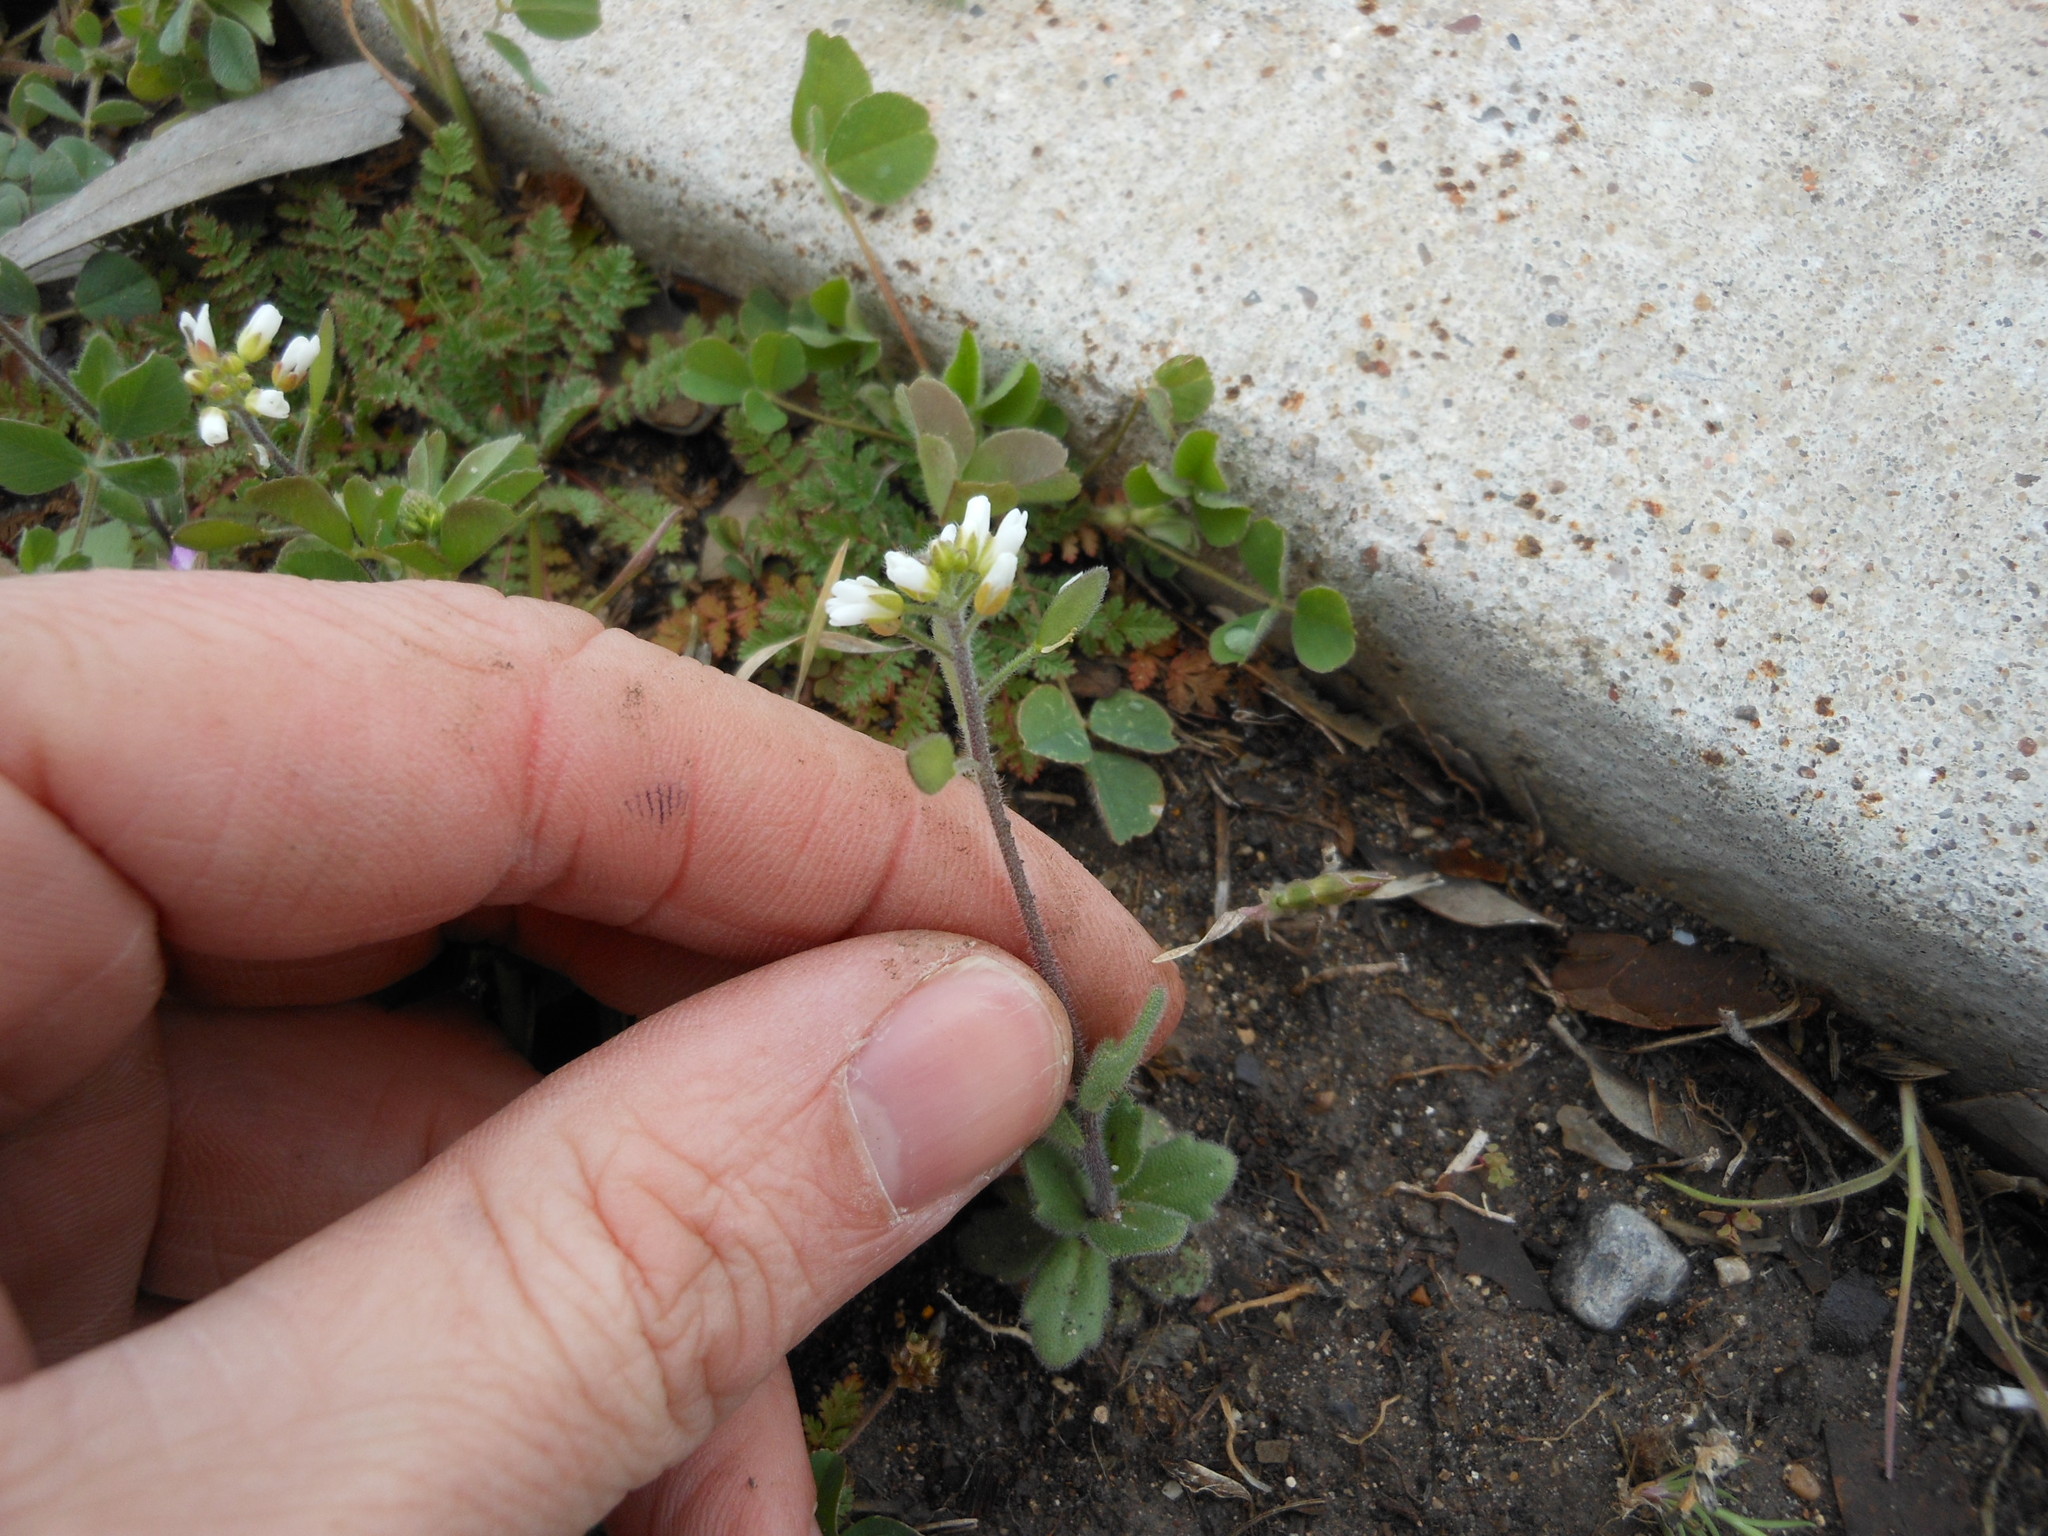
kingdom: Plantae
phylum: Tracheophyta
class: Magnoliopsida
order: Brassicales
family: Brassicaceae
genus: Tomostima
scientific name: Tomostima platycarpa
